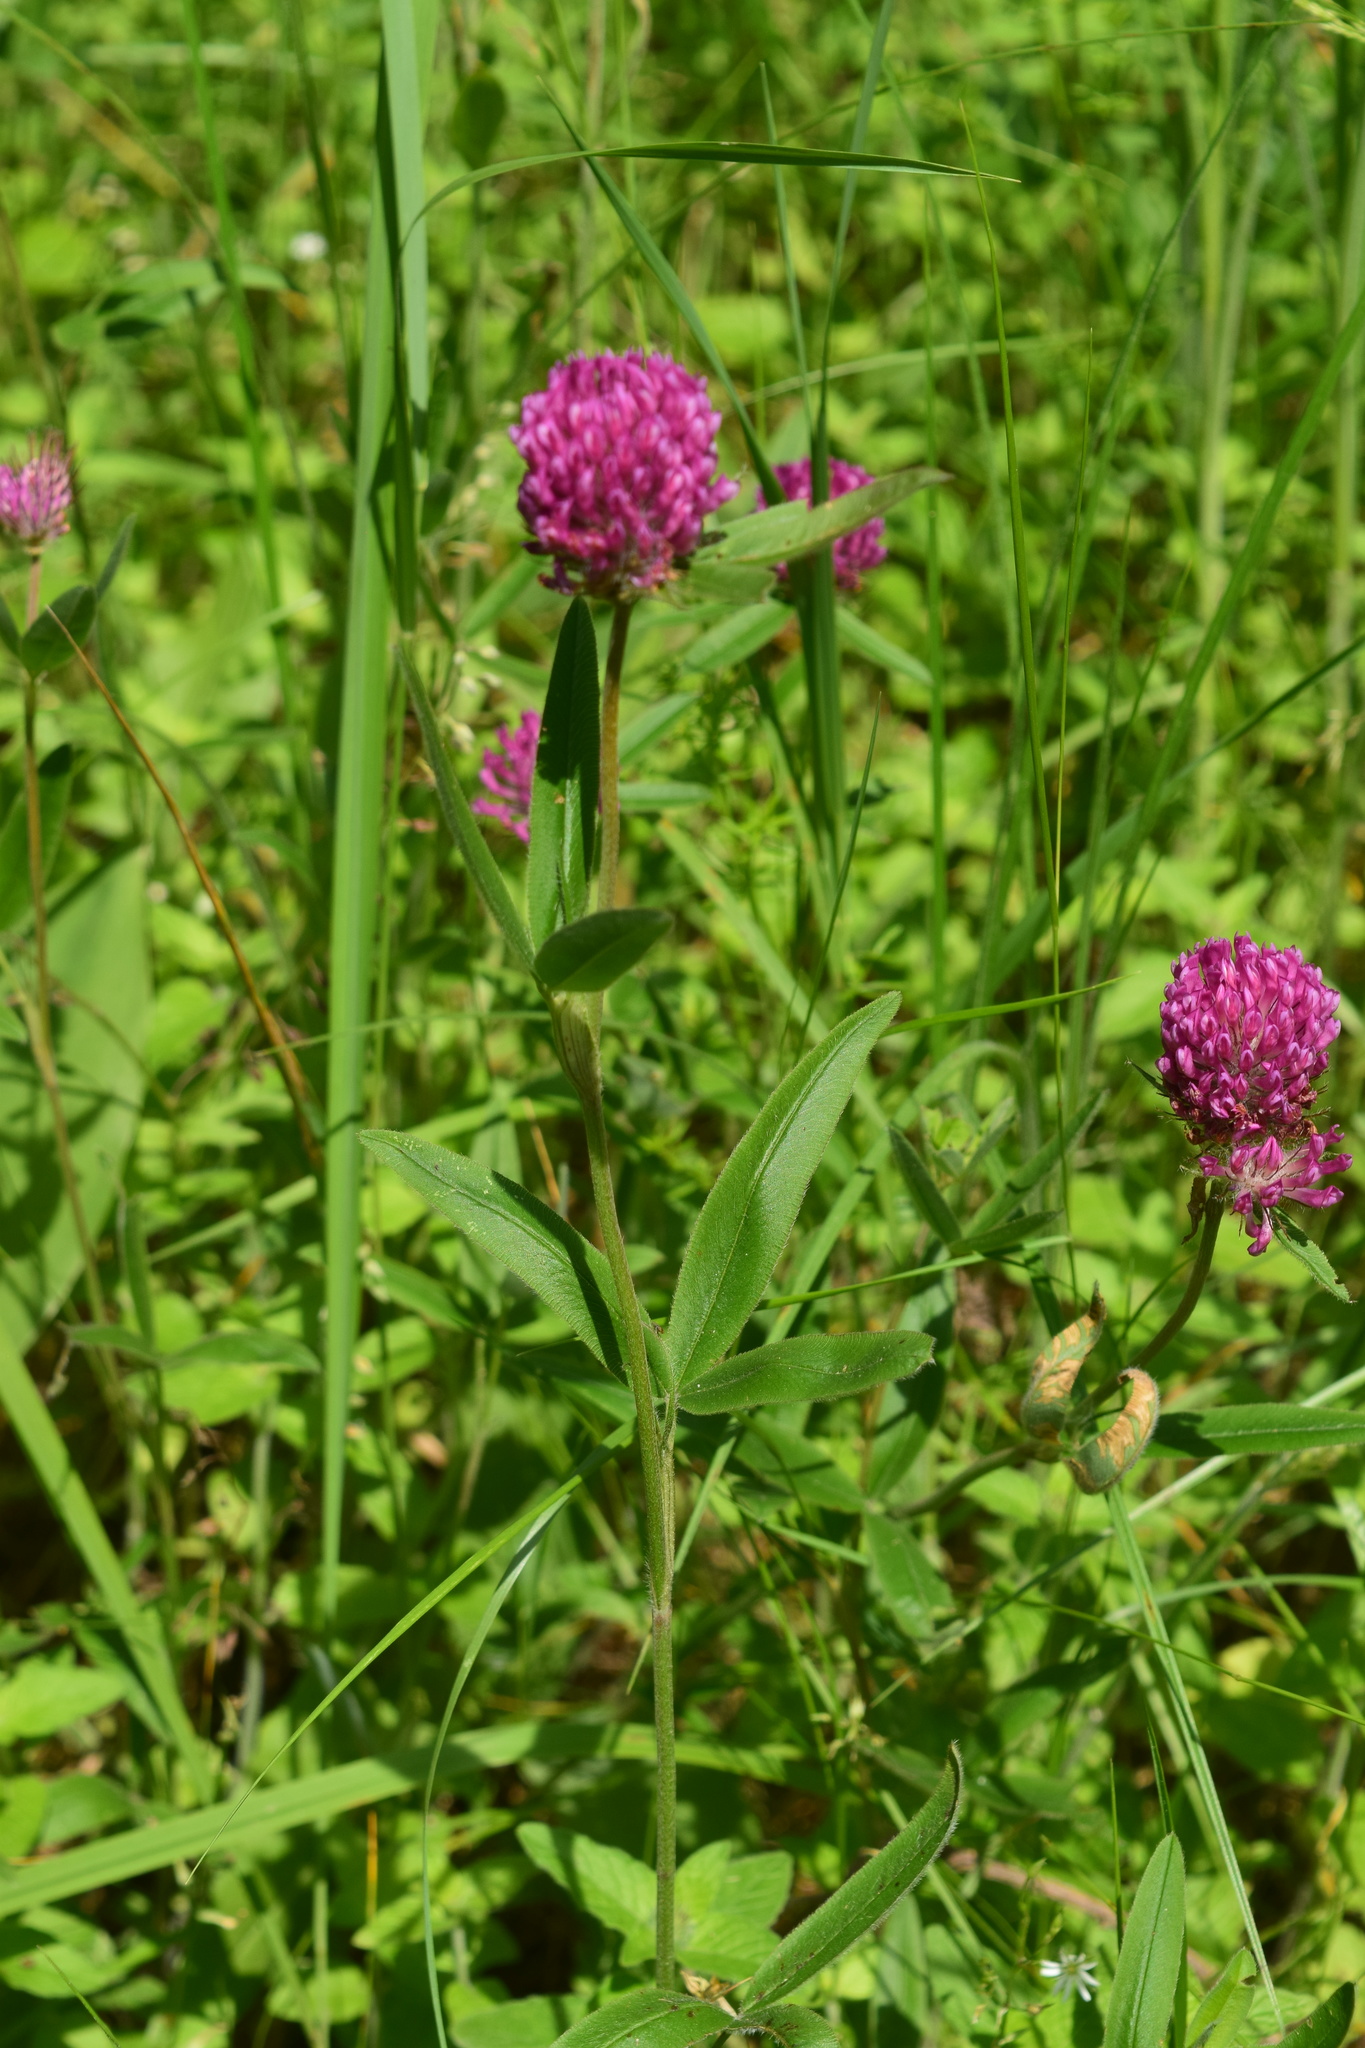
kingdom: Plantae
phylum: Tracheophyta
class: Magnoliopsida
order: Fabales
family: Fabaceae
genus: Trifolium
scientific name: Trifolium alpestre
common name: Owl-head clover
